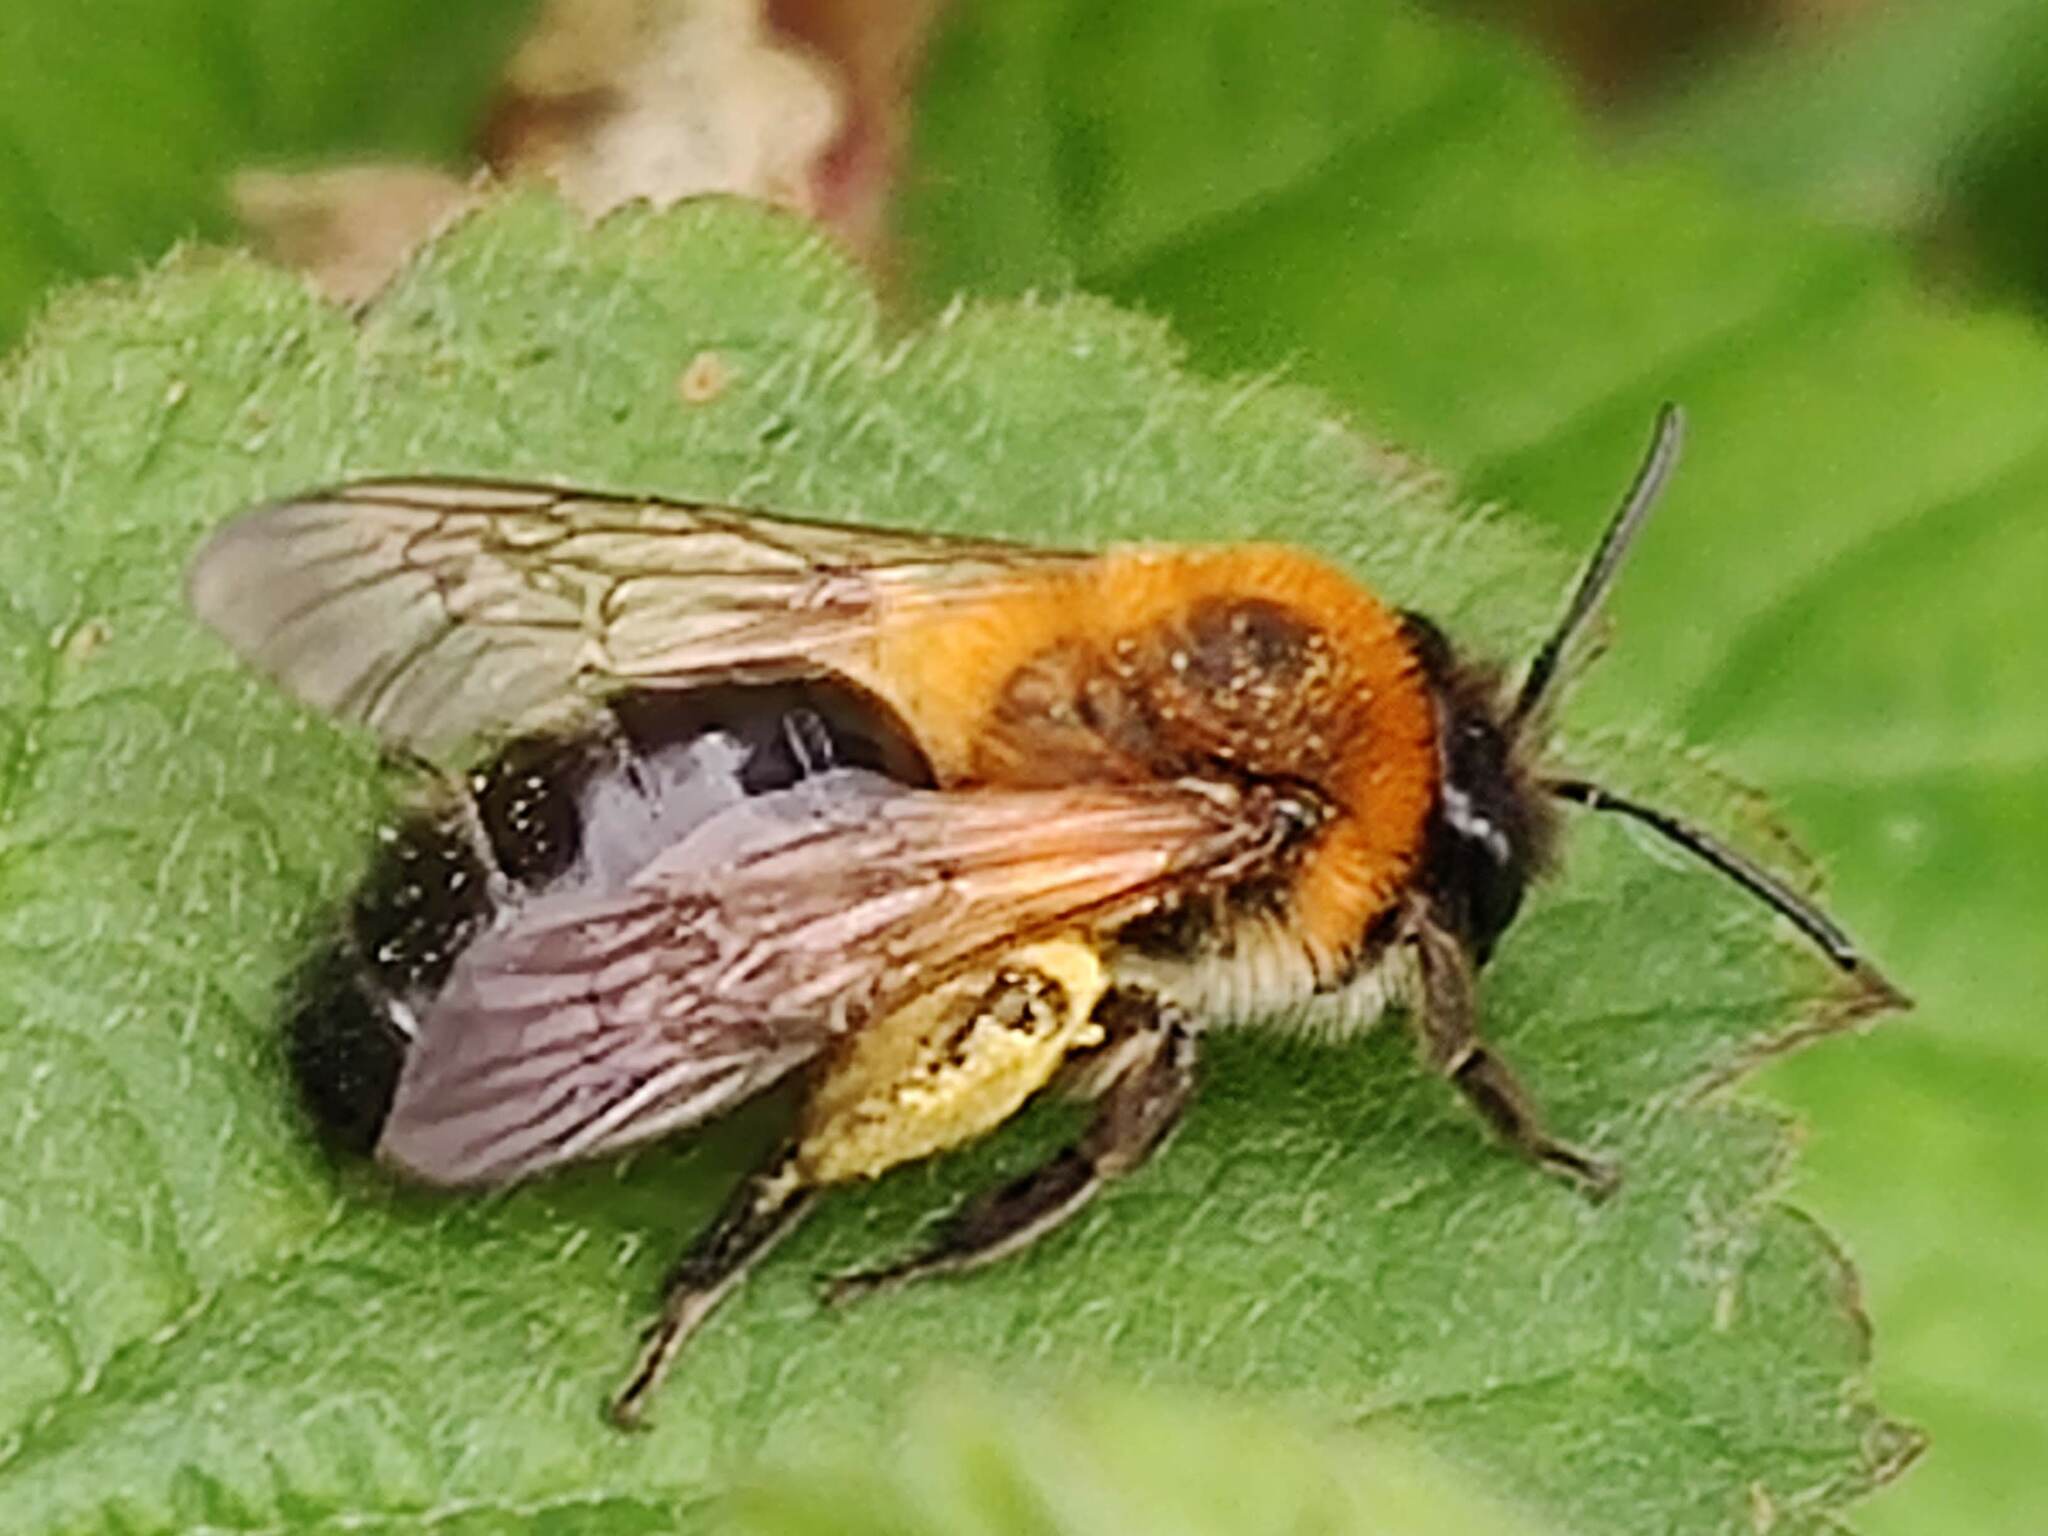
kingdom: Animalia
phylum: Arthropoda
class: Insecta
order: Hymenoptera
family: Andrenidae
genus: Andrena
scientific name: Andrena nitida
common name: Grey-patched mining bee
